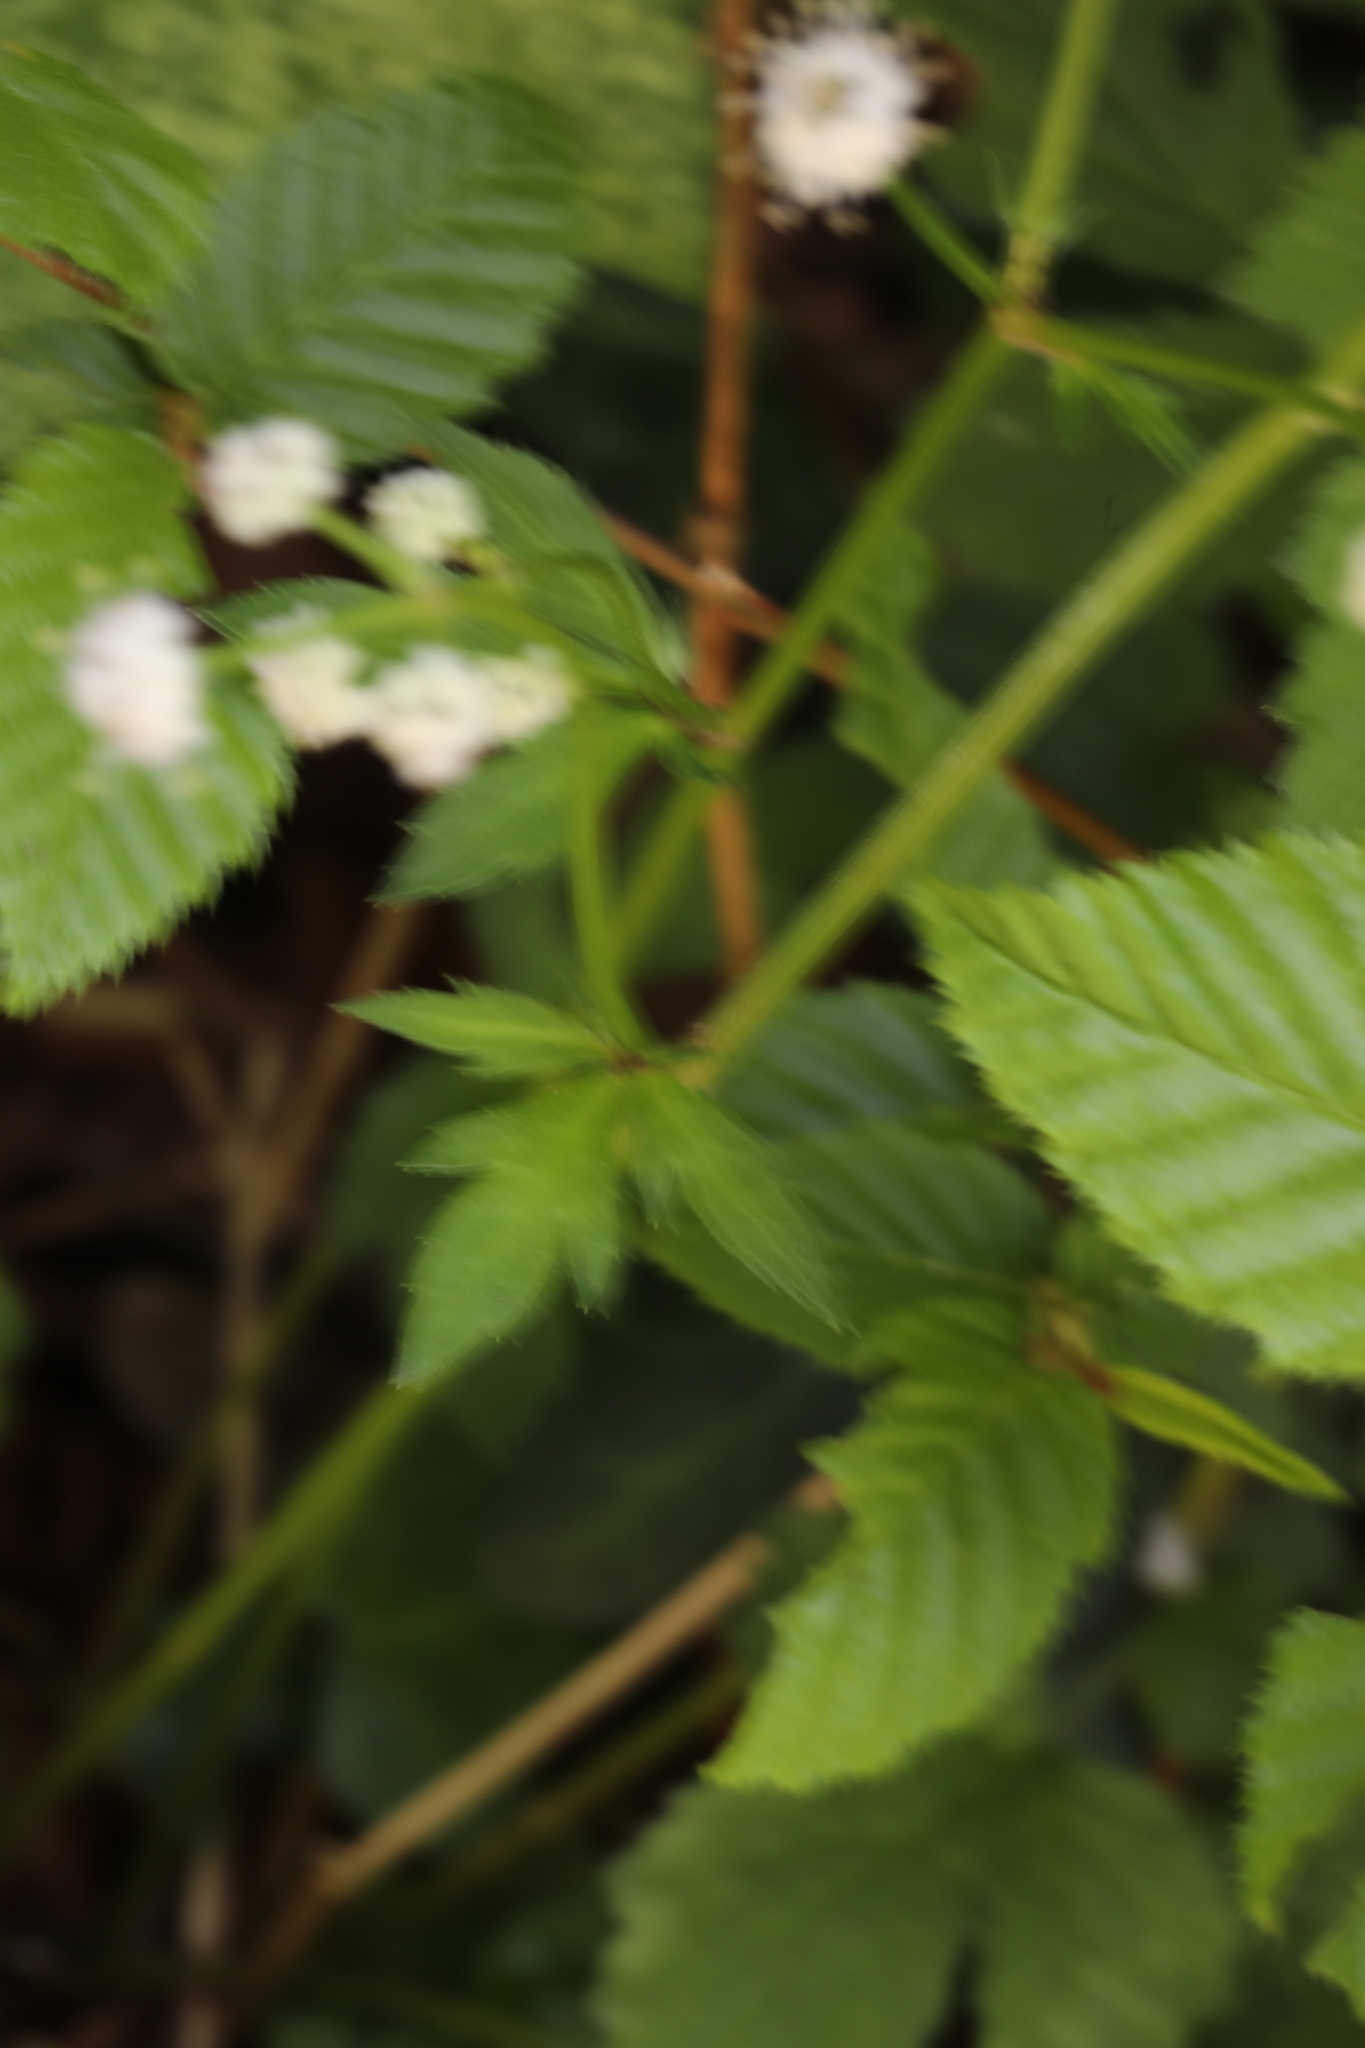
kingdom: Plantae
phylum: Tracheophyta
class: Magnoliopsida
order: Apiales
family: Apiaceae
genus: Sanicula
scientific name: Sanicula europaea
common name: Sanicle
